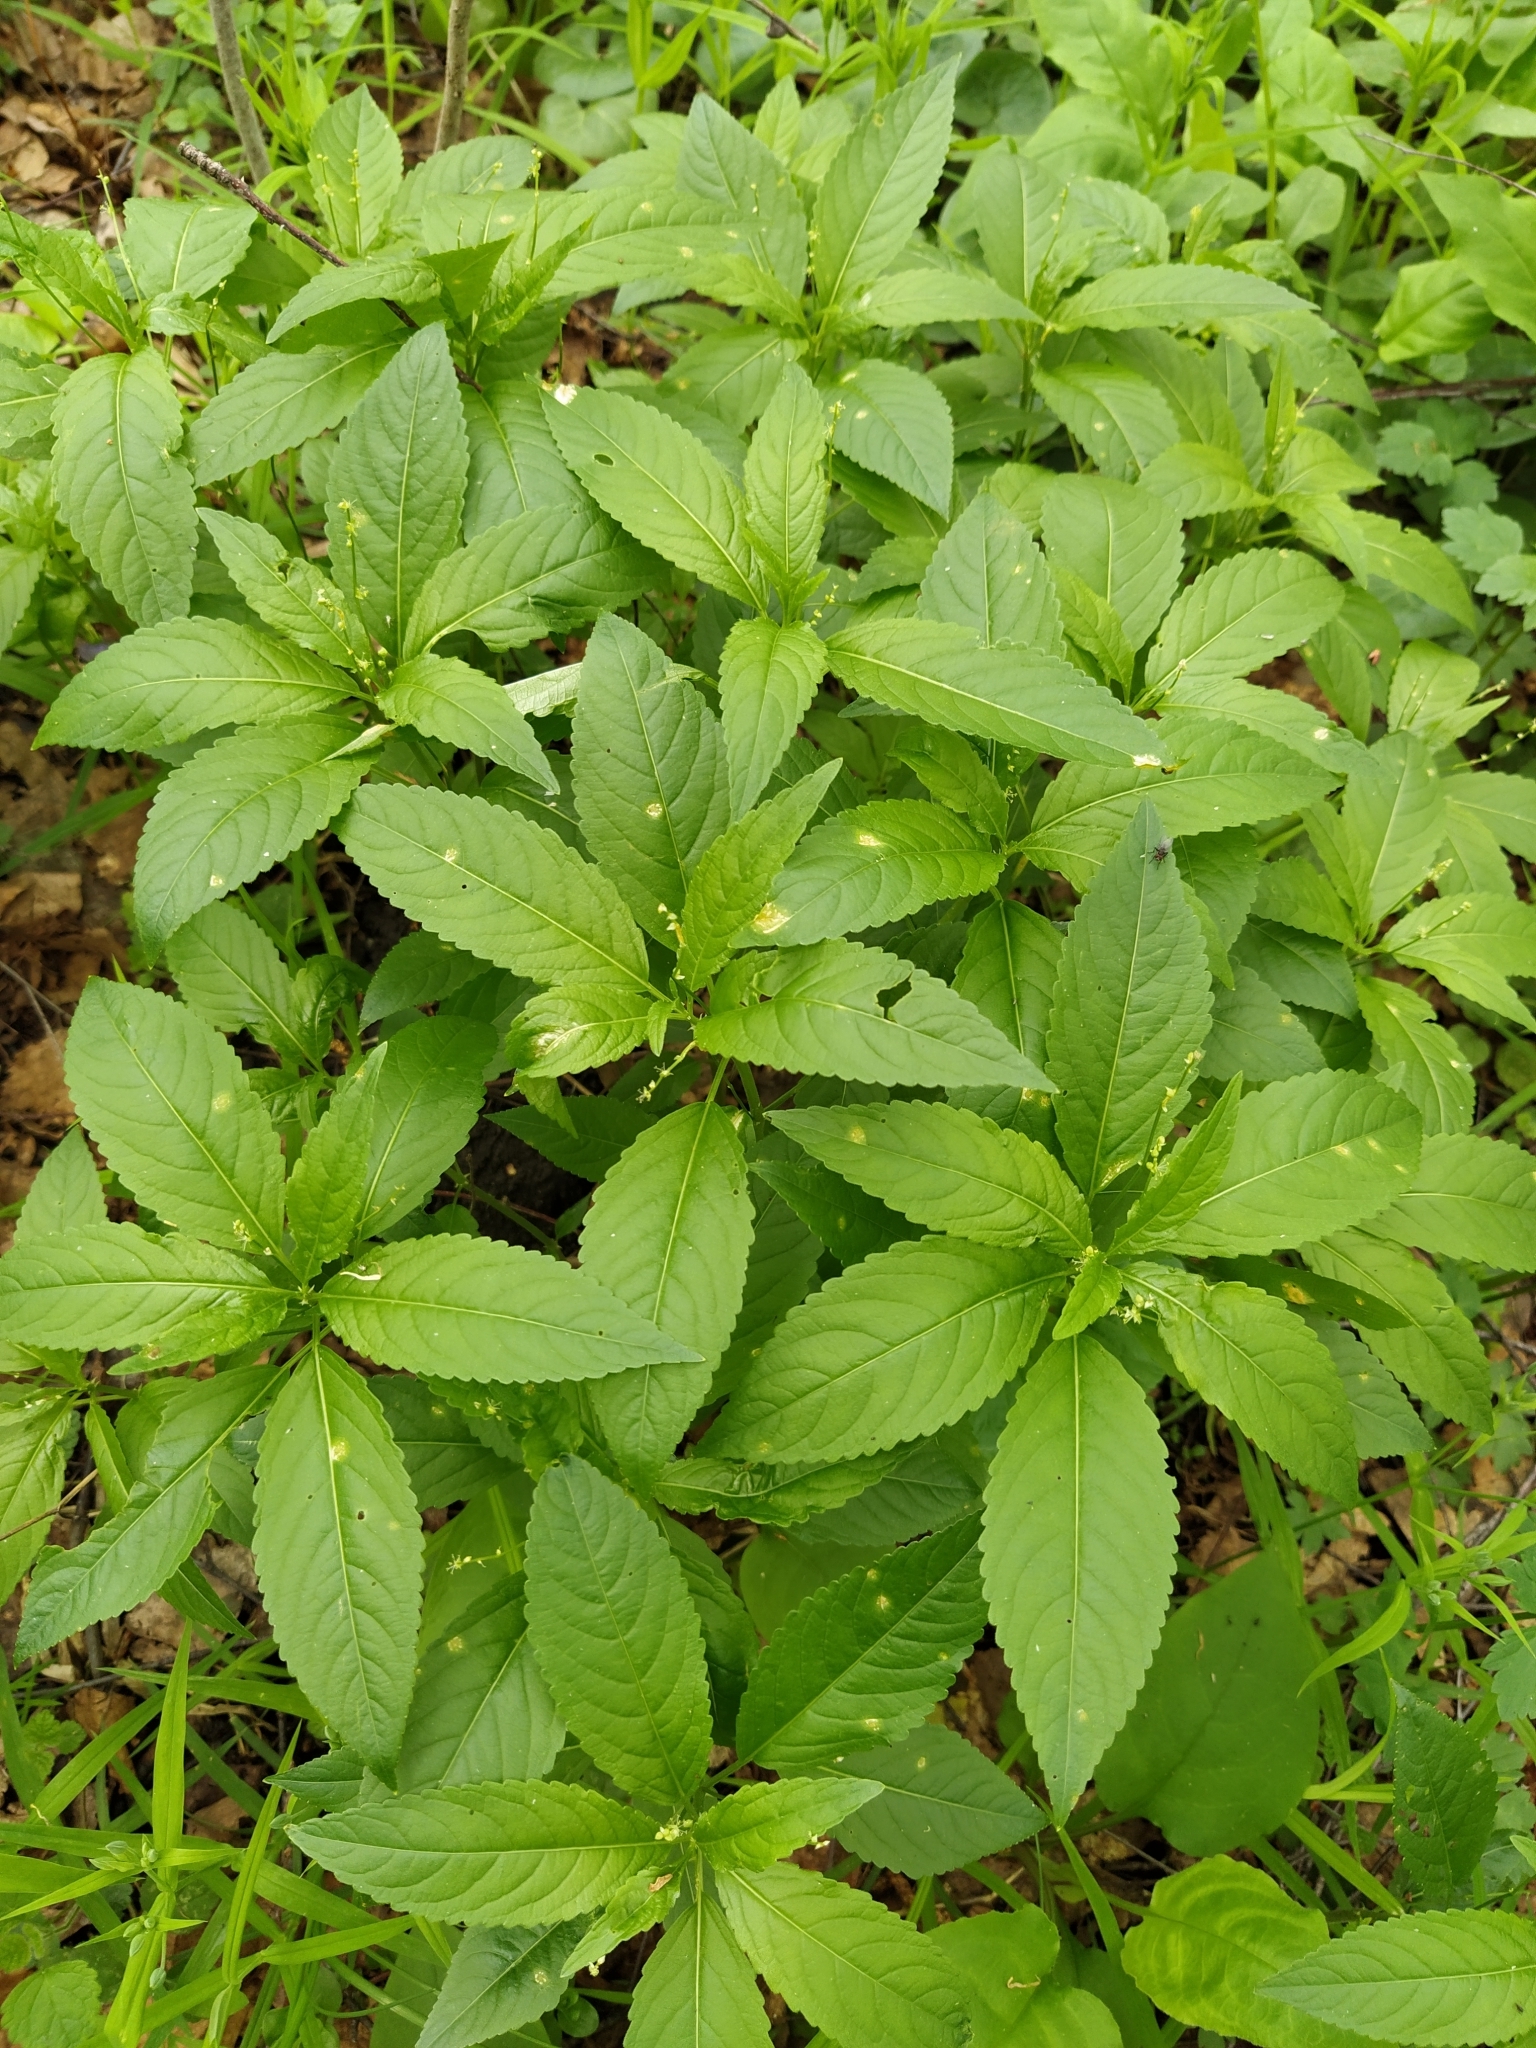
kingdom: Plantae
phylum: Tracheophyta
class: Magnoliopsida
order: Malpighiales
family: Euphorbiaceae
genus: Mercurialis
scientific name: Mercurialis perennis
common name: Dog mercury
